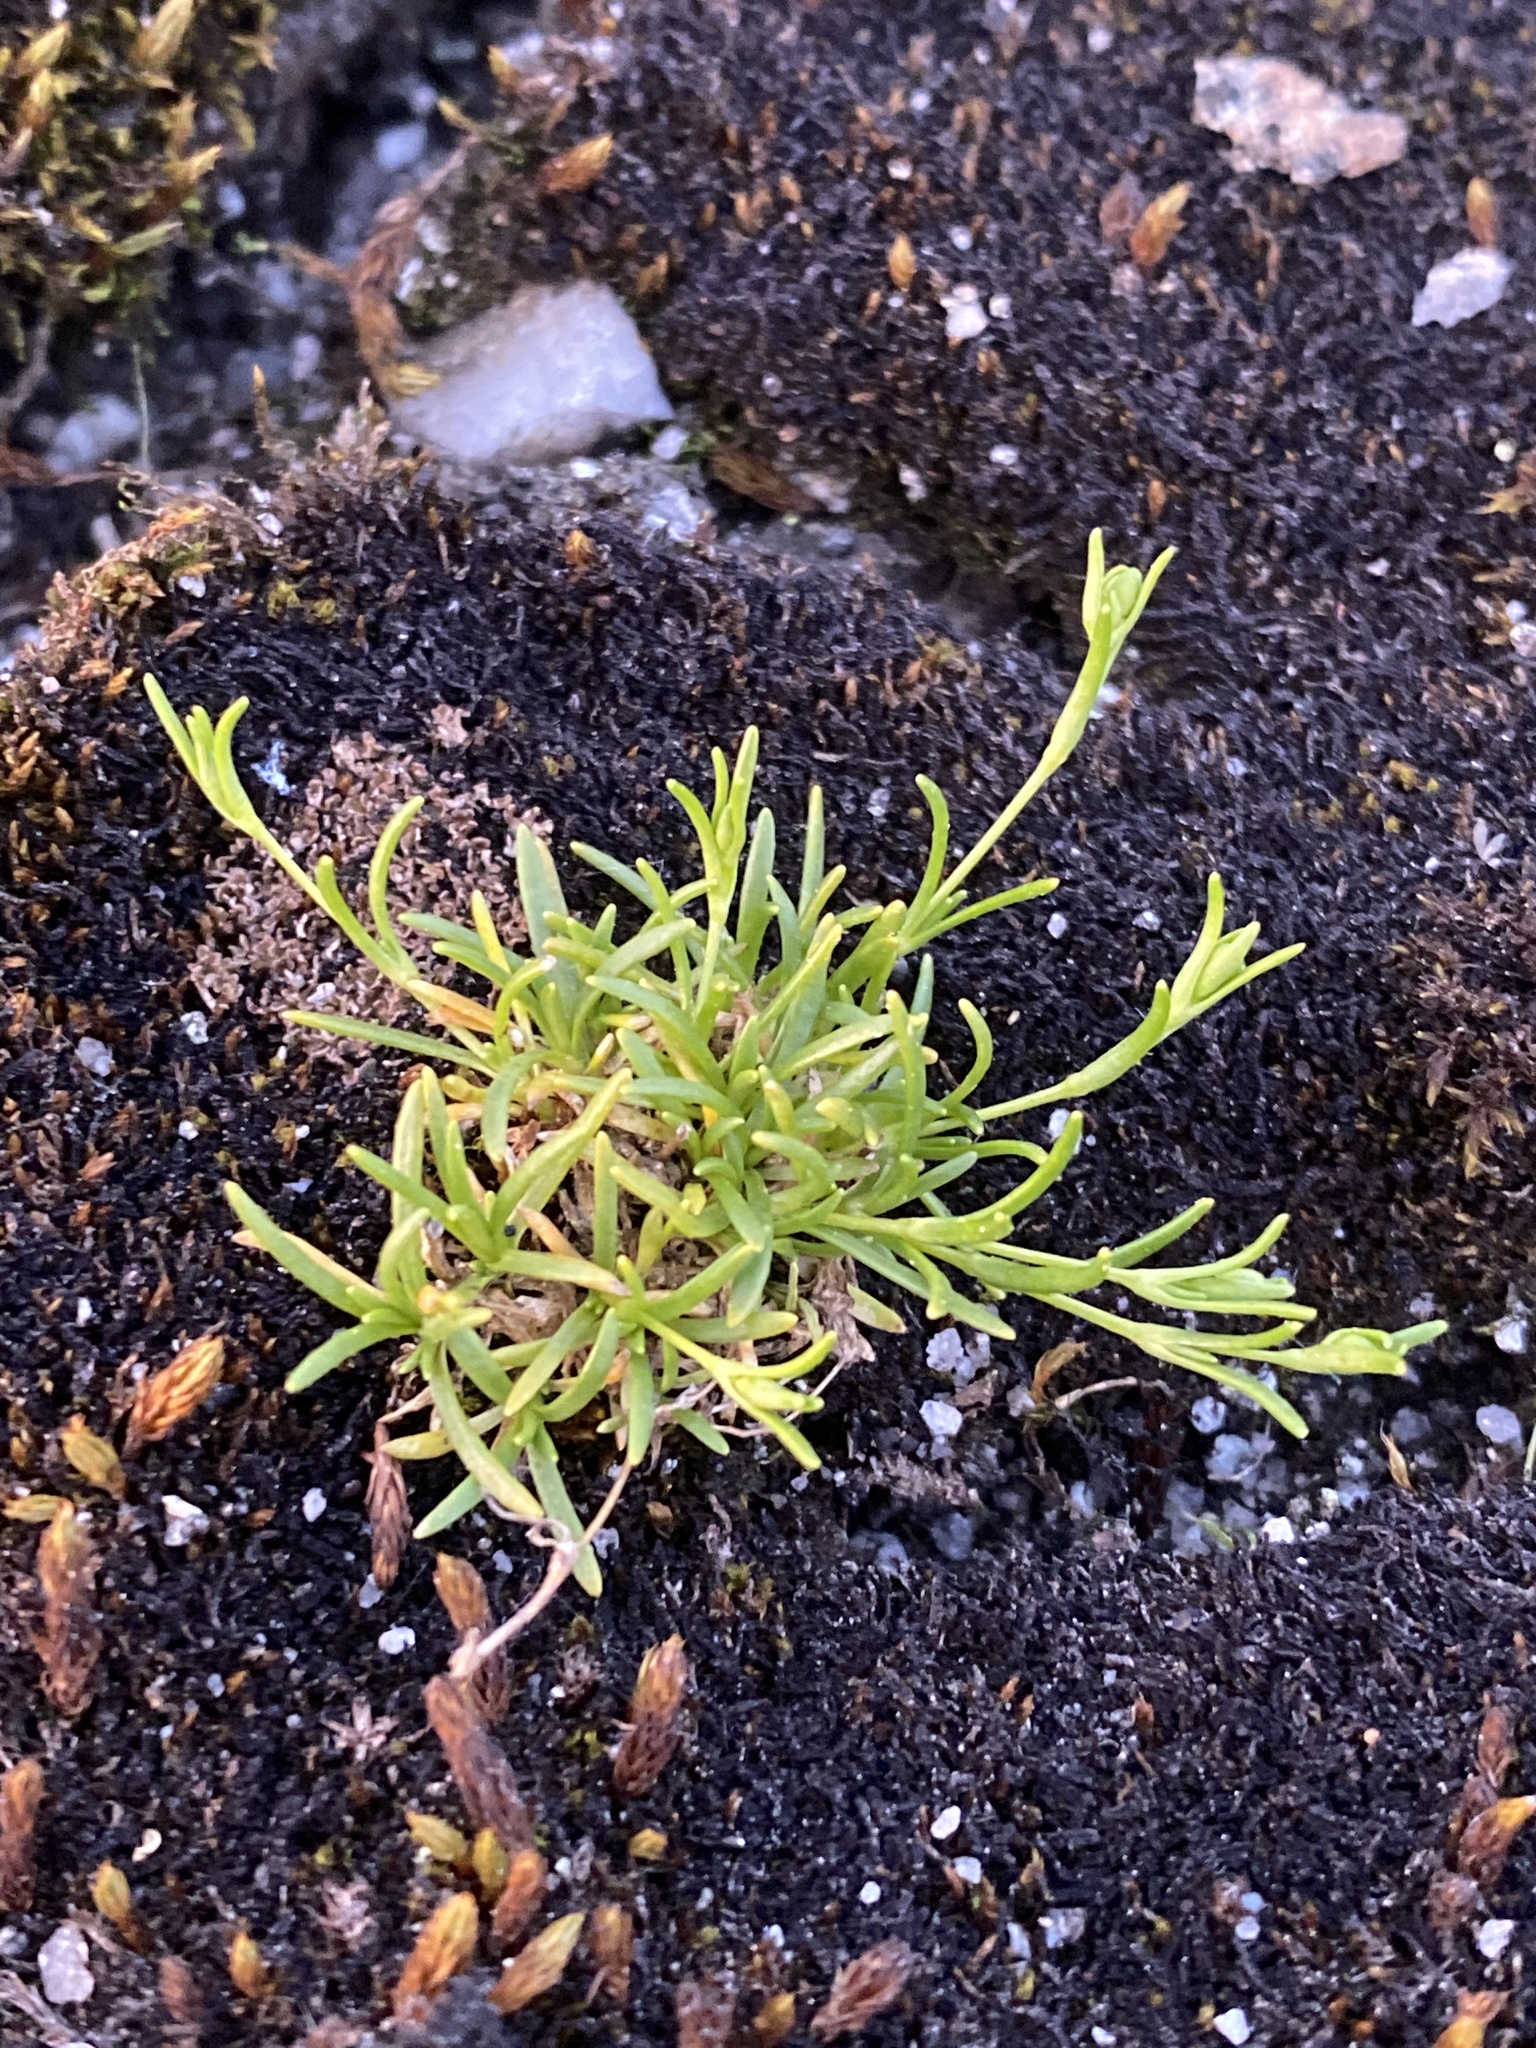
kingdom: Plantae
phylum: Tracheophyta
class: Magnoliopsida
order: Caryophyllales
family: Caryophyllaceae
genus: Geocarpon
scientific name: Geocarpon groenlandicum
